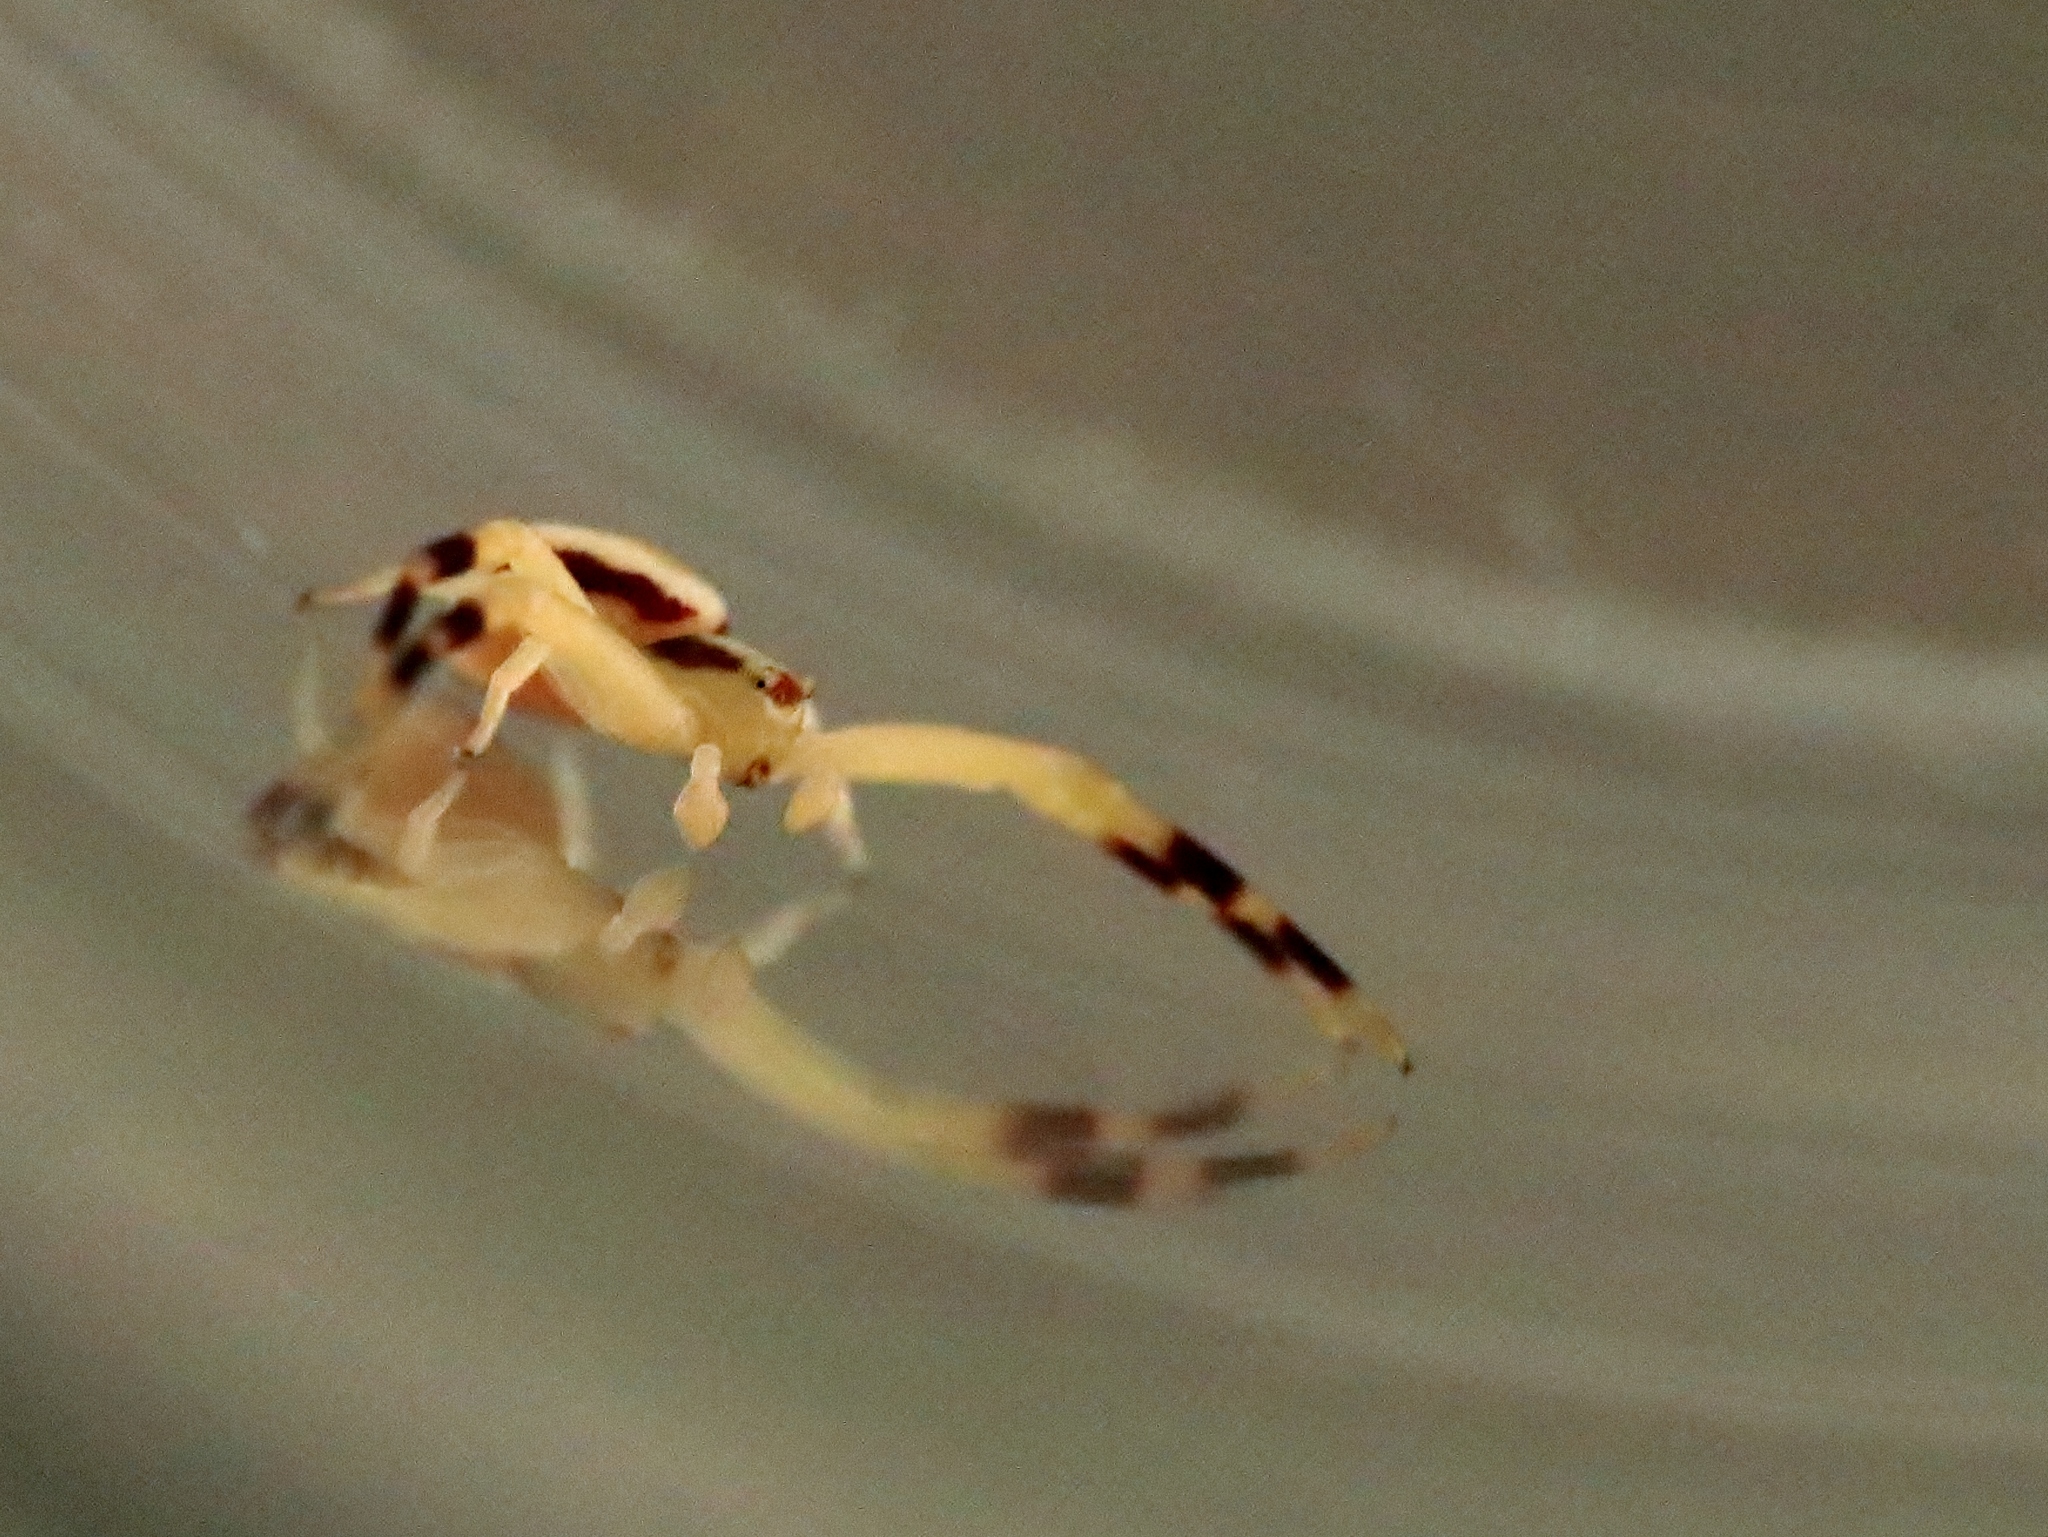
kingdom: Animalia
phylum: Arthropoda
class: Arachnida
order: Araneae
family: Thomisidae
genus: Misumena
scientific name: Misumena vatia
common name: Goldenrod crab spider
